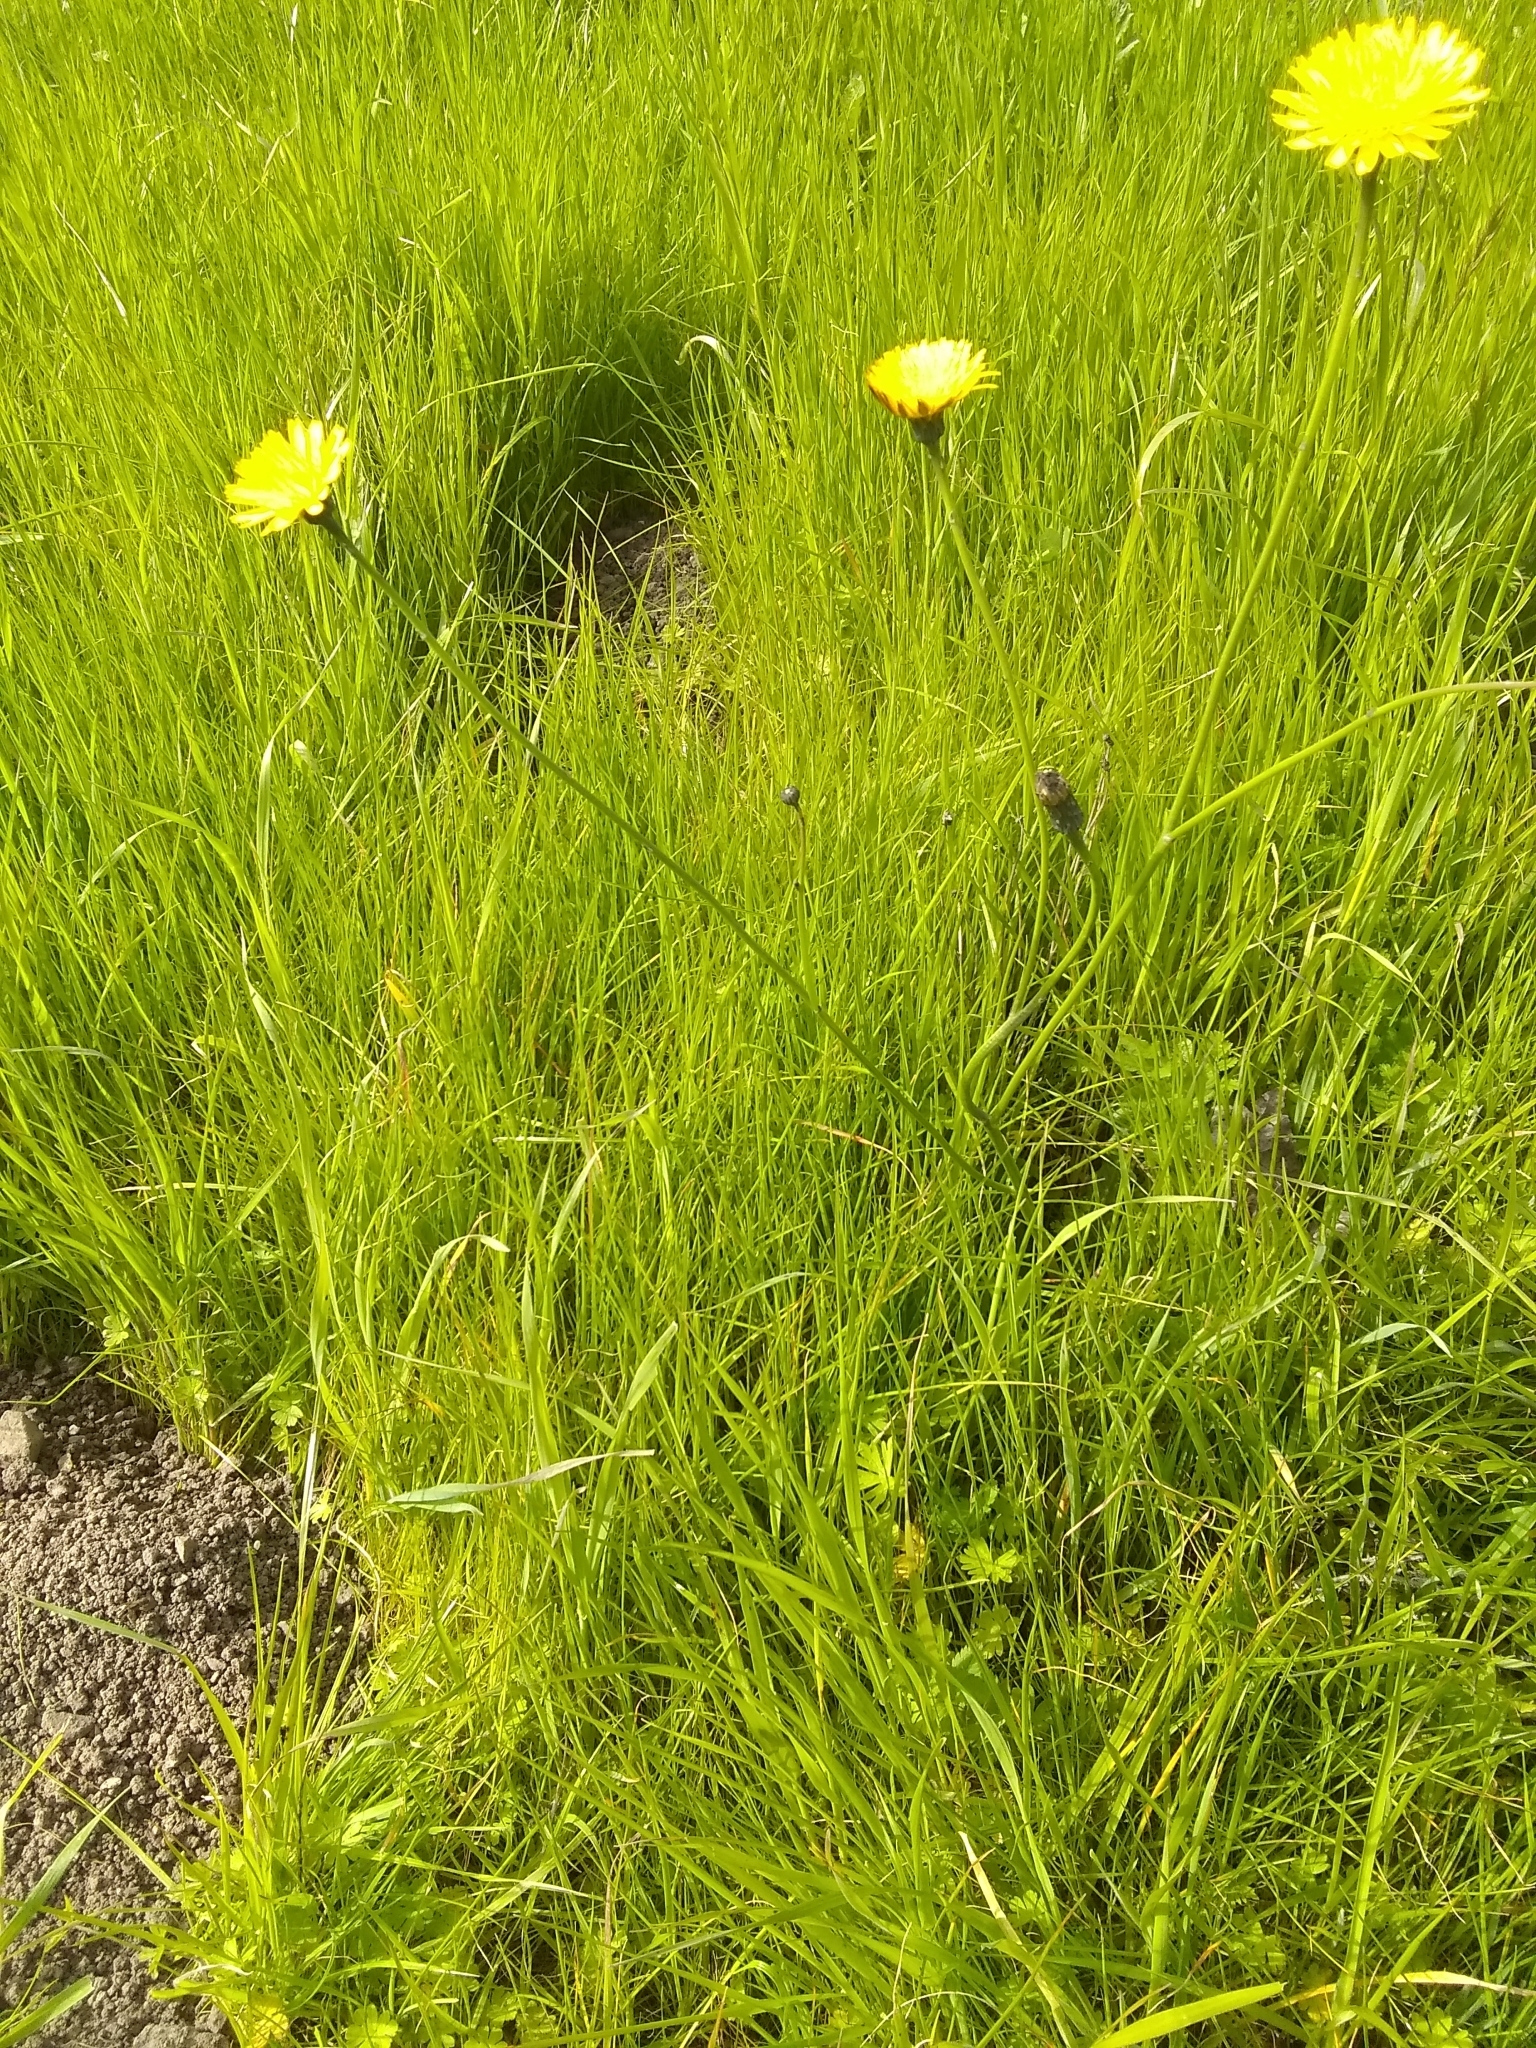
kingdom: Plantae
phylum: Tracheophyta
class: Magnoliopsida
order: Asterales
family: Asteraceae
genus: Hypochaeris
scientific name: Hypochaeris radicata
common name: Flatweed
